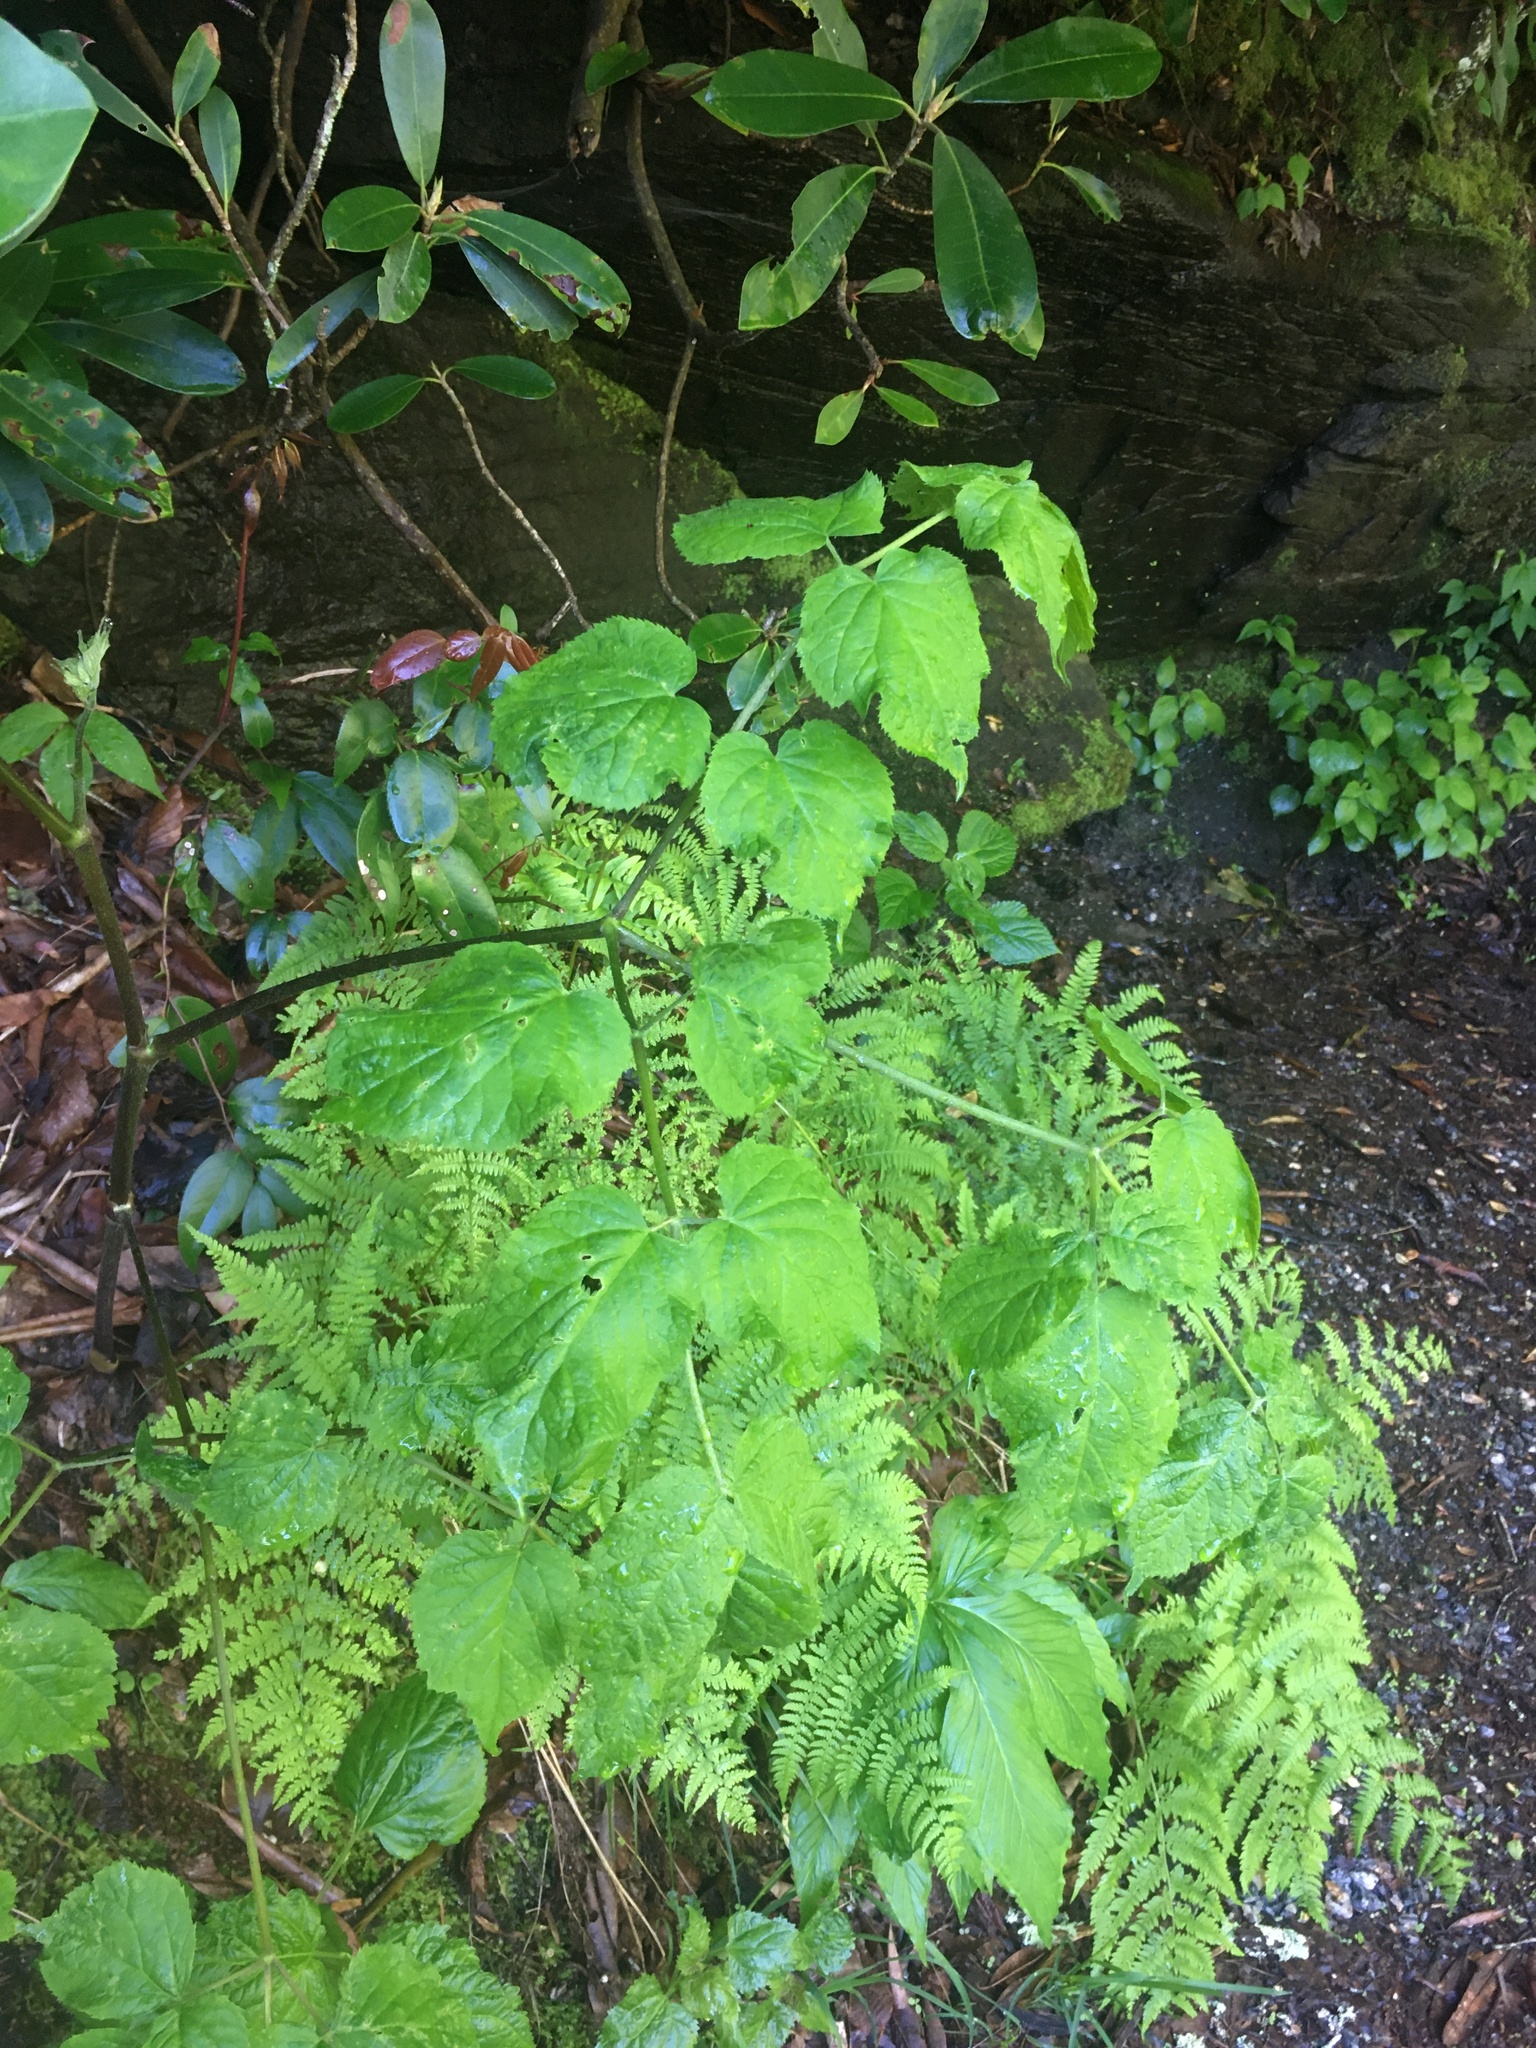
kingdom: Plantae
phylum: Tracheophyta
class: Magnoliopsida
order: Apiales
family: Araliaceae
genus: Aralia
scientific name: Aralia racemosa
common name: American-spikenard
